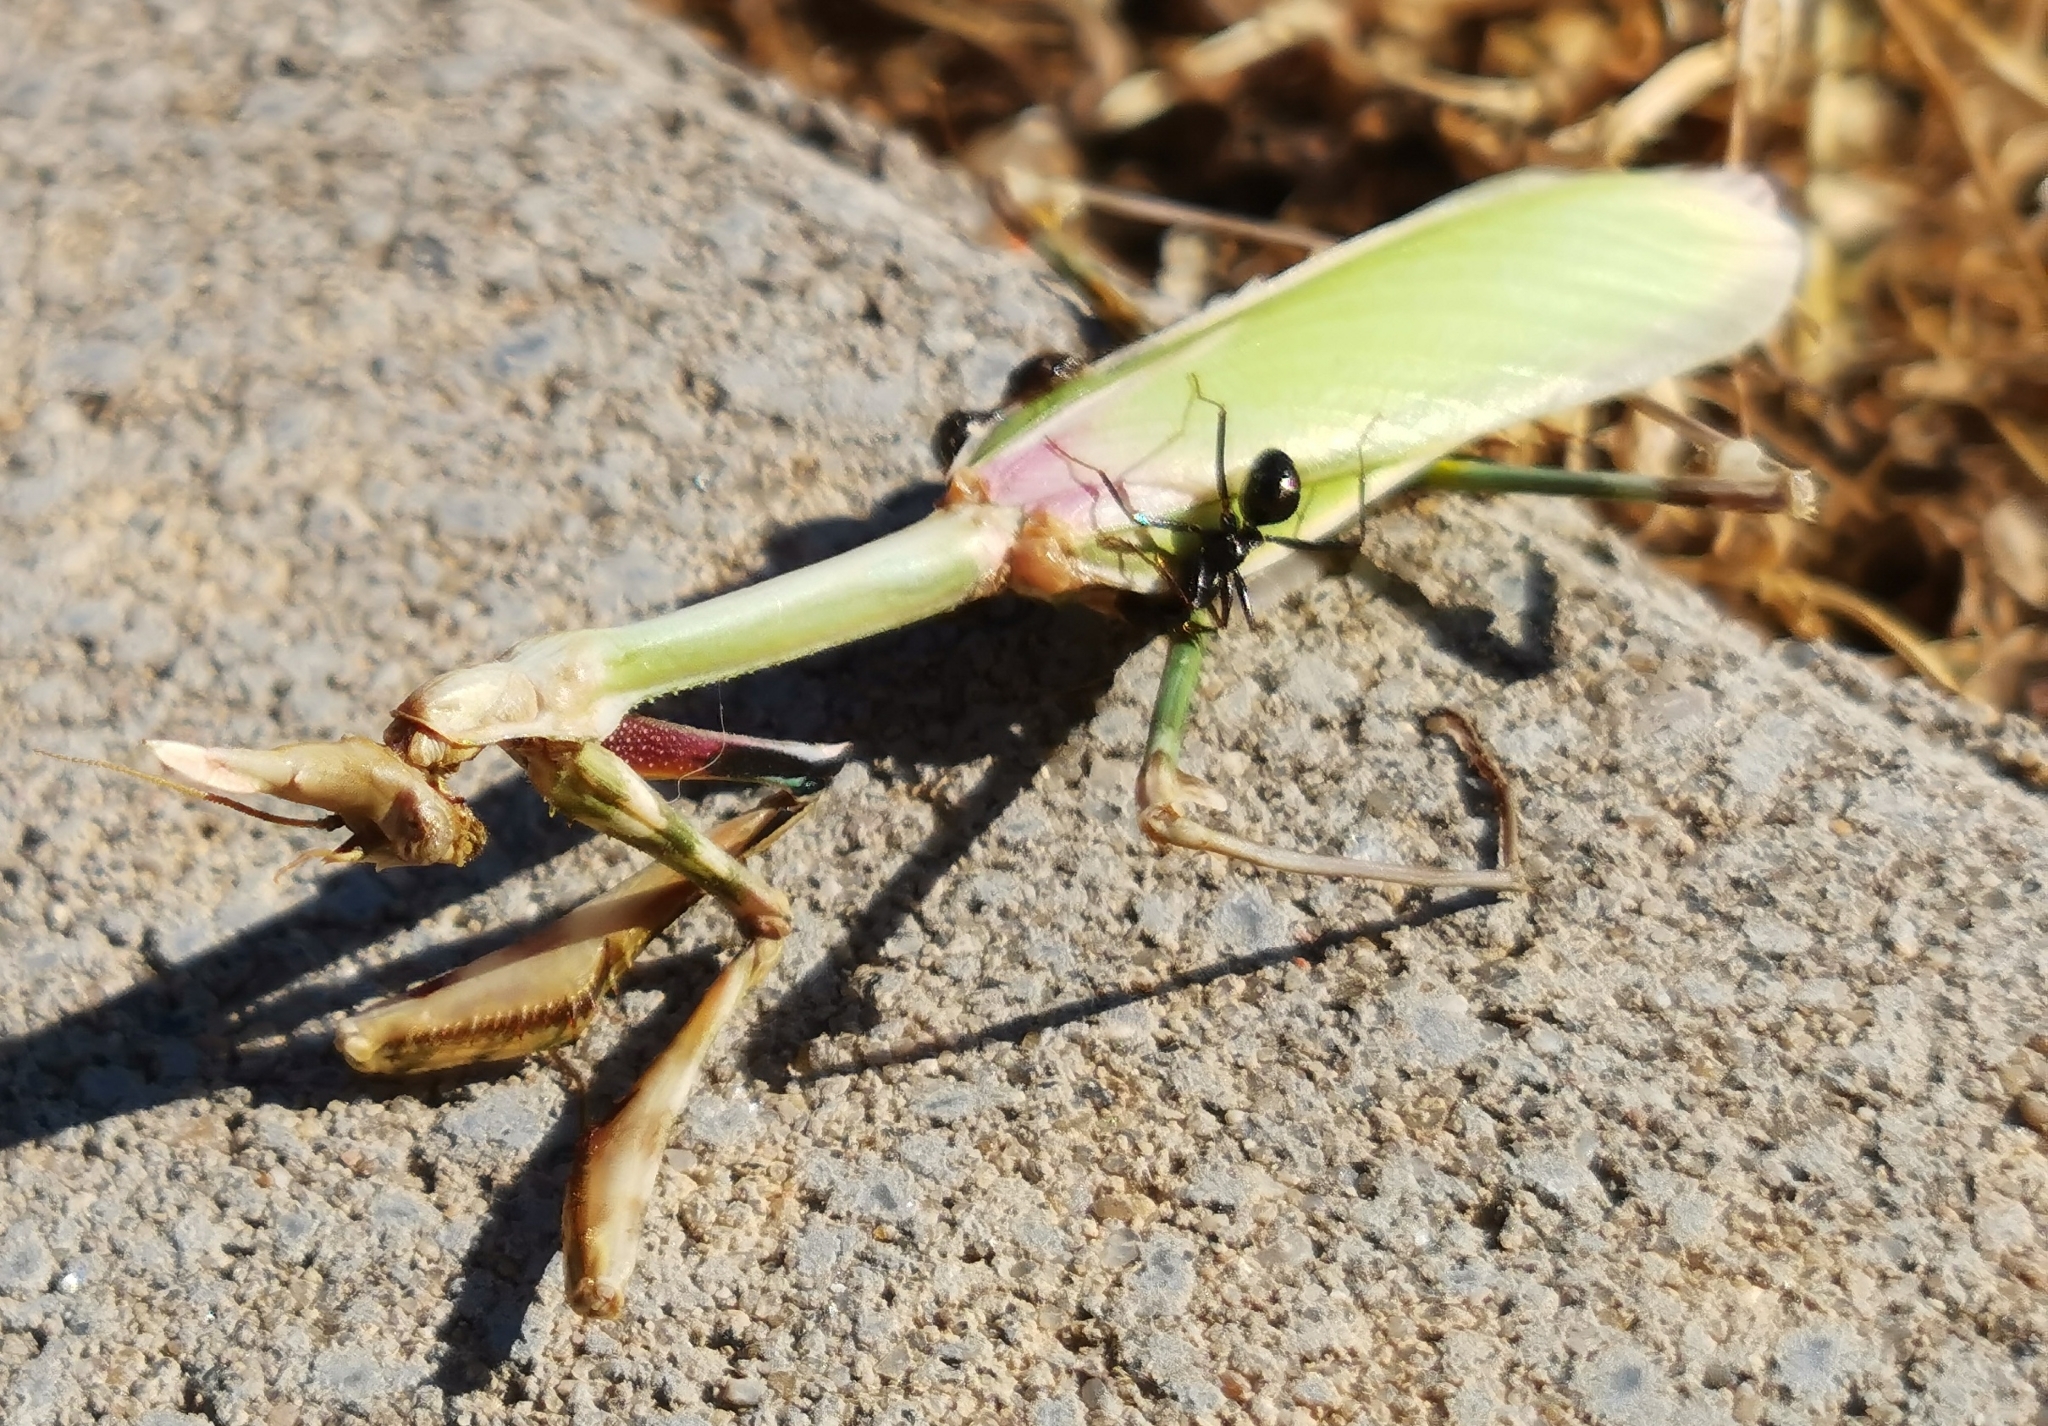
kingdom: Animalia
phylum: Arthropoda
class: Insecta
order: Mantodea
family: Empusidae
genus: Empusa
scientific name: Empusa pennata
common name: Conehead mantis
